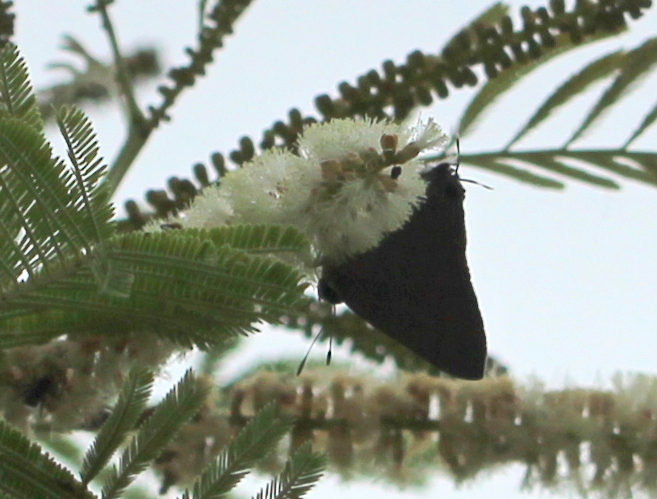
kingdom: Animalia
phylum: Arthropoda
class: Insecta
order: Lepidoptera
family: Lycaenidae
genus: Rapala
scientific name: Rapala iarbus
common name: Common red flash
